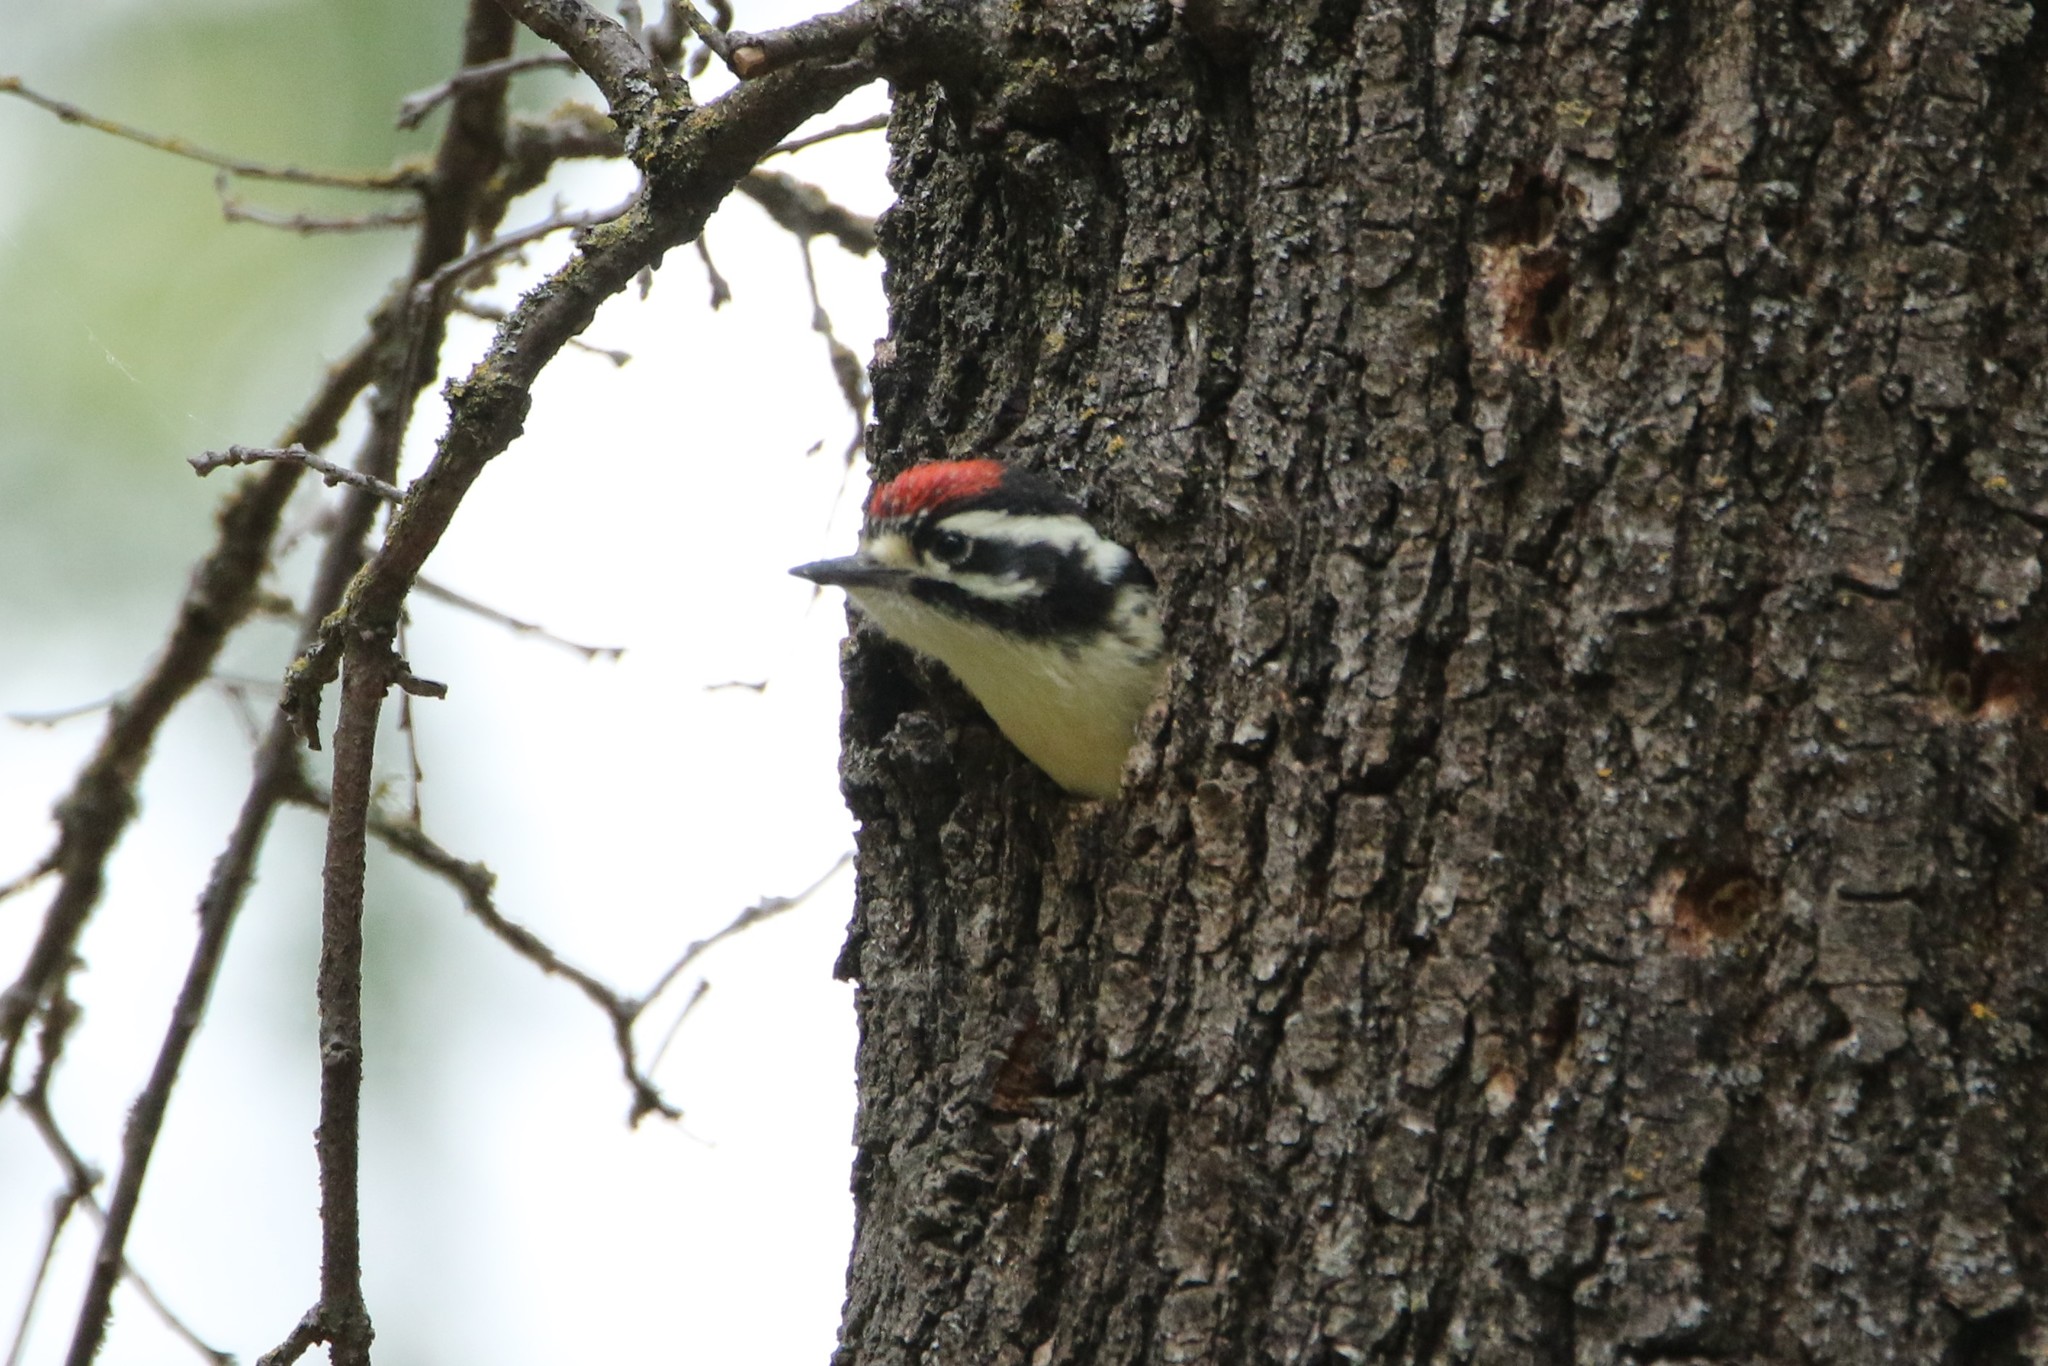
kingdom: Animalia
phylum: Chordata
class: Aves
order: Piciformes
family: Picidae
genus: Dryobates
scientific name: Dryobates nuttallii
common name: Nuttall's woodpecker
